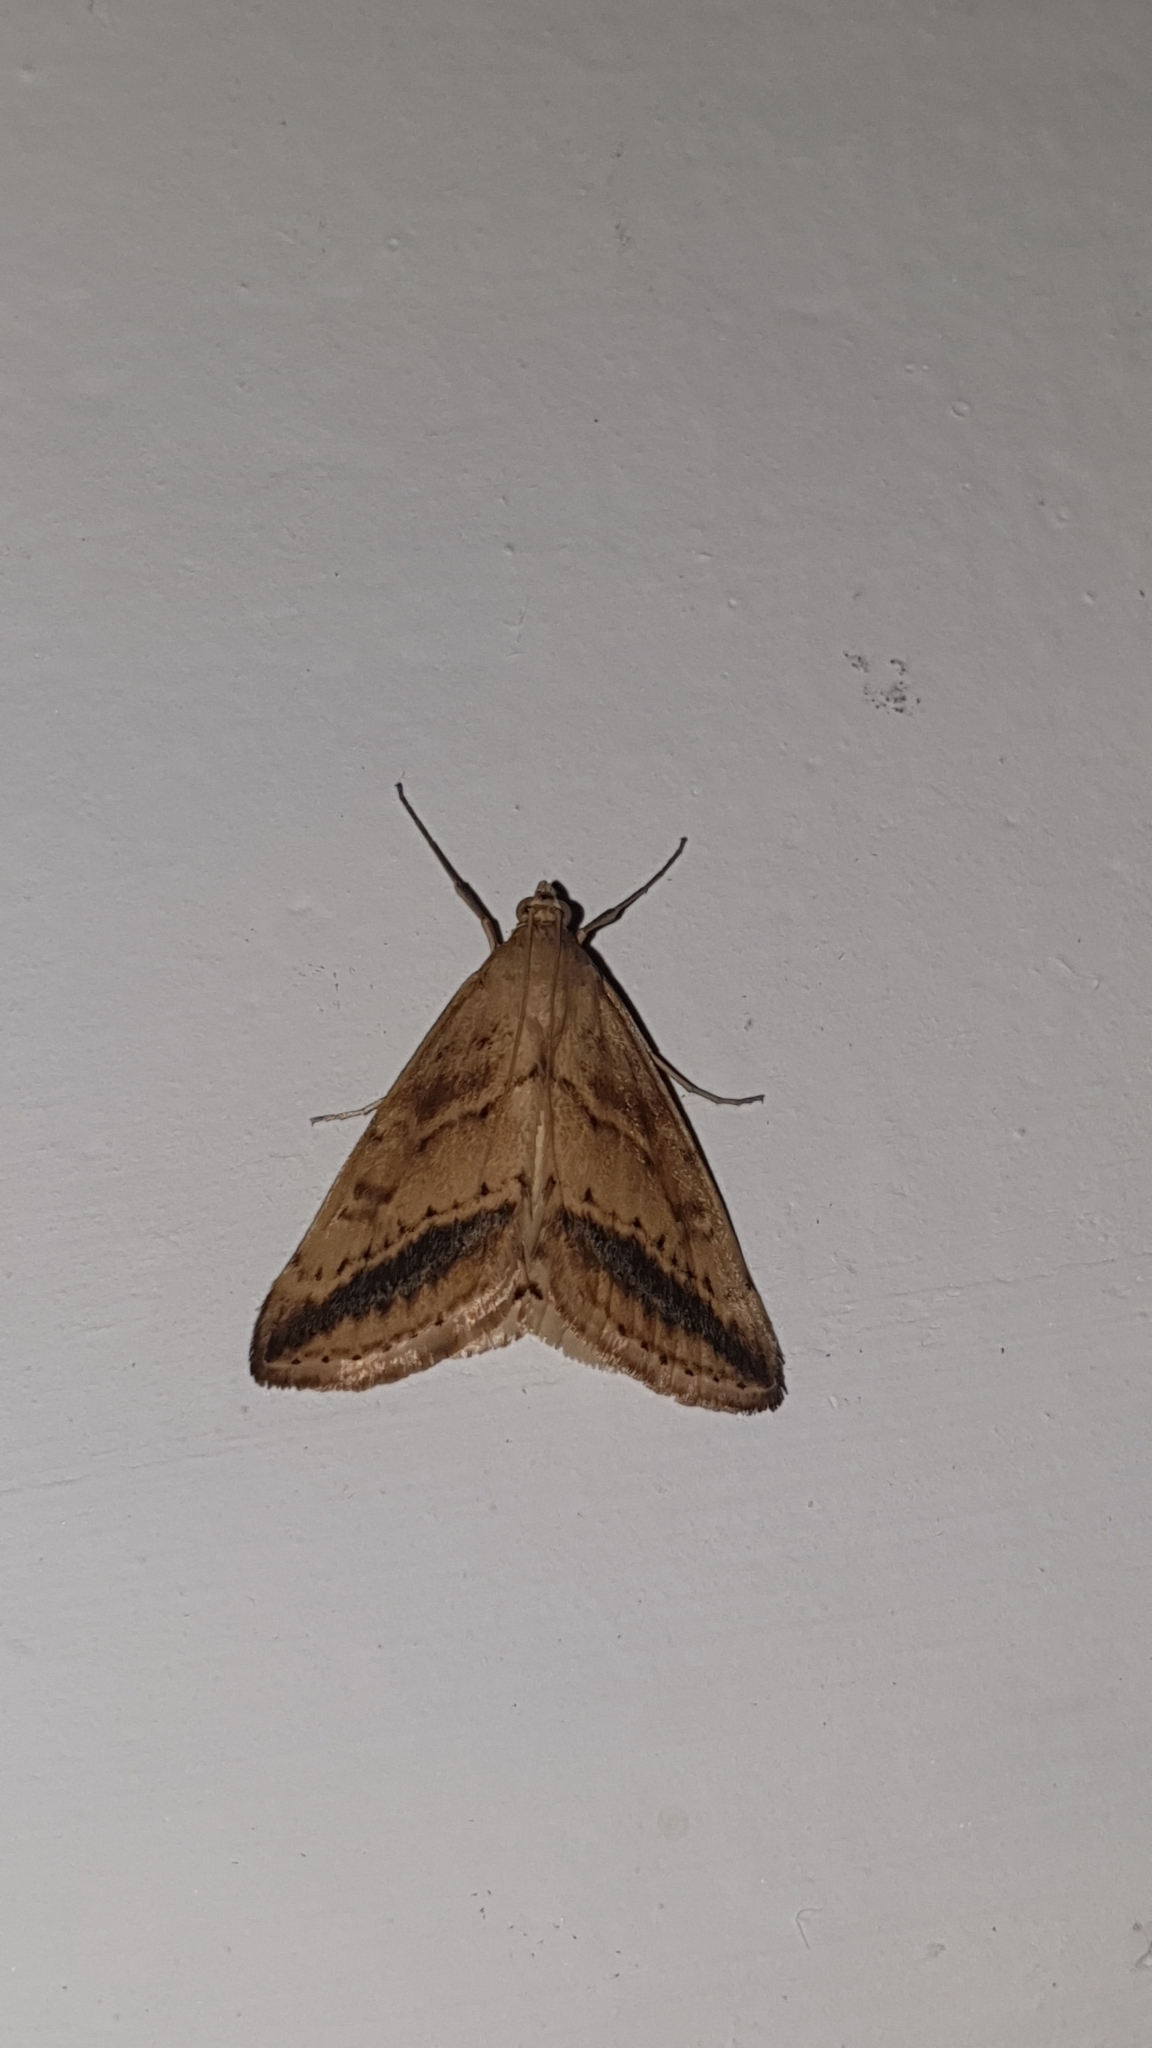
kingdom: Animalia
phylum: Arthropoda
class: Insecta
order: Lepidoptera
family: Crambidae
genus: Evergestis
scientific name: Evergestis nomadalis
